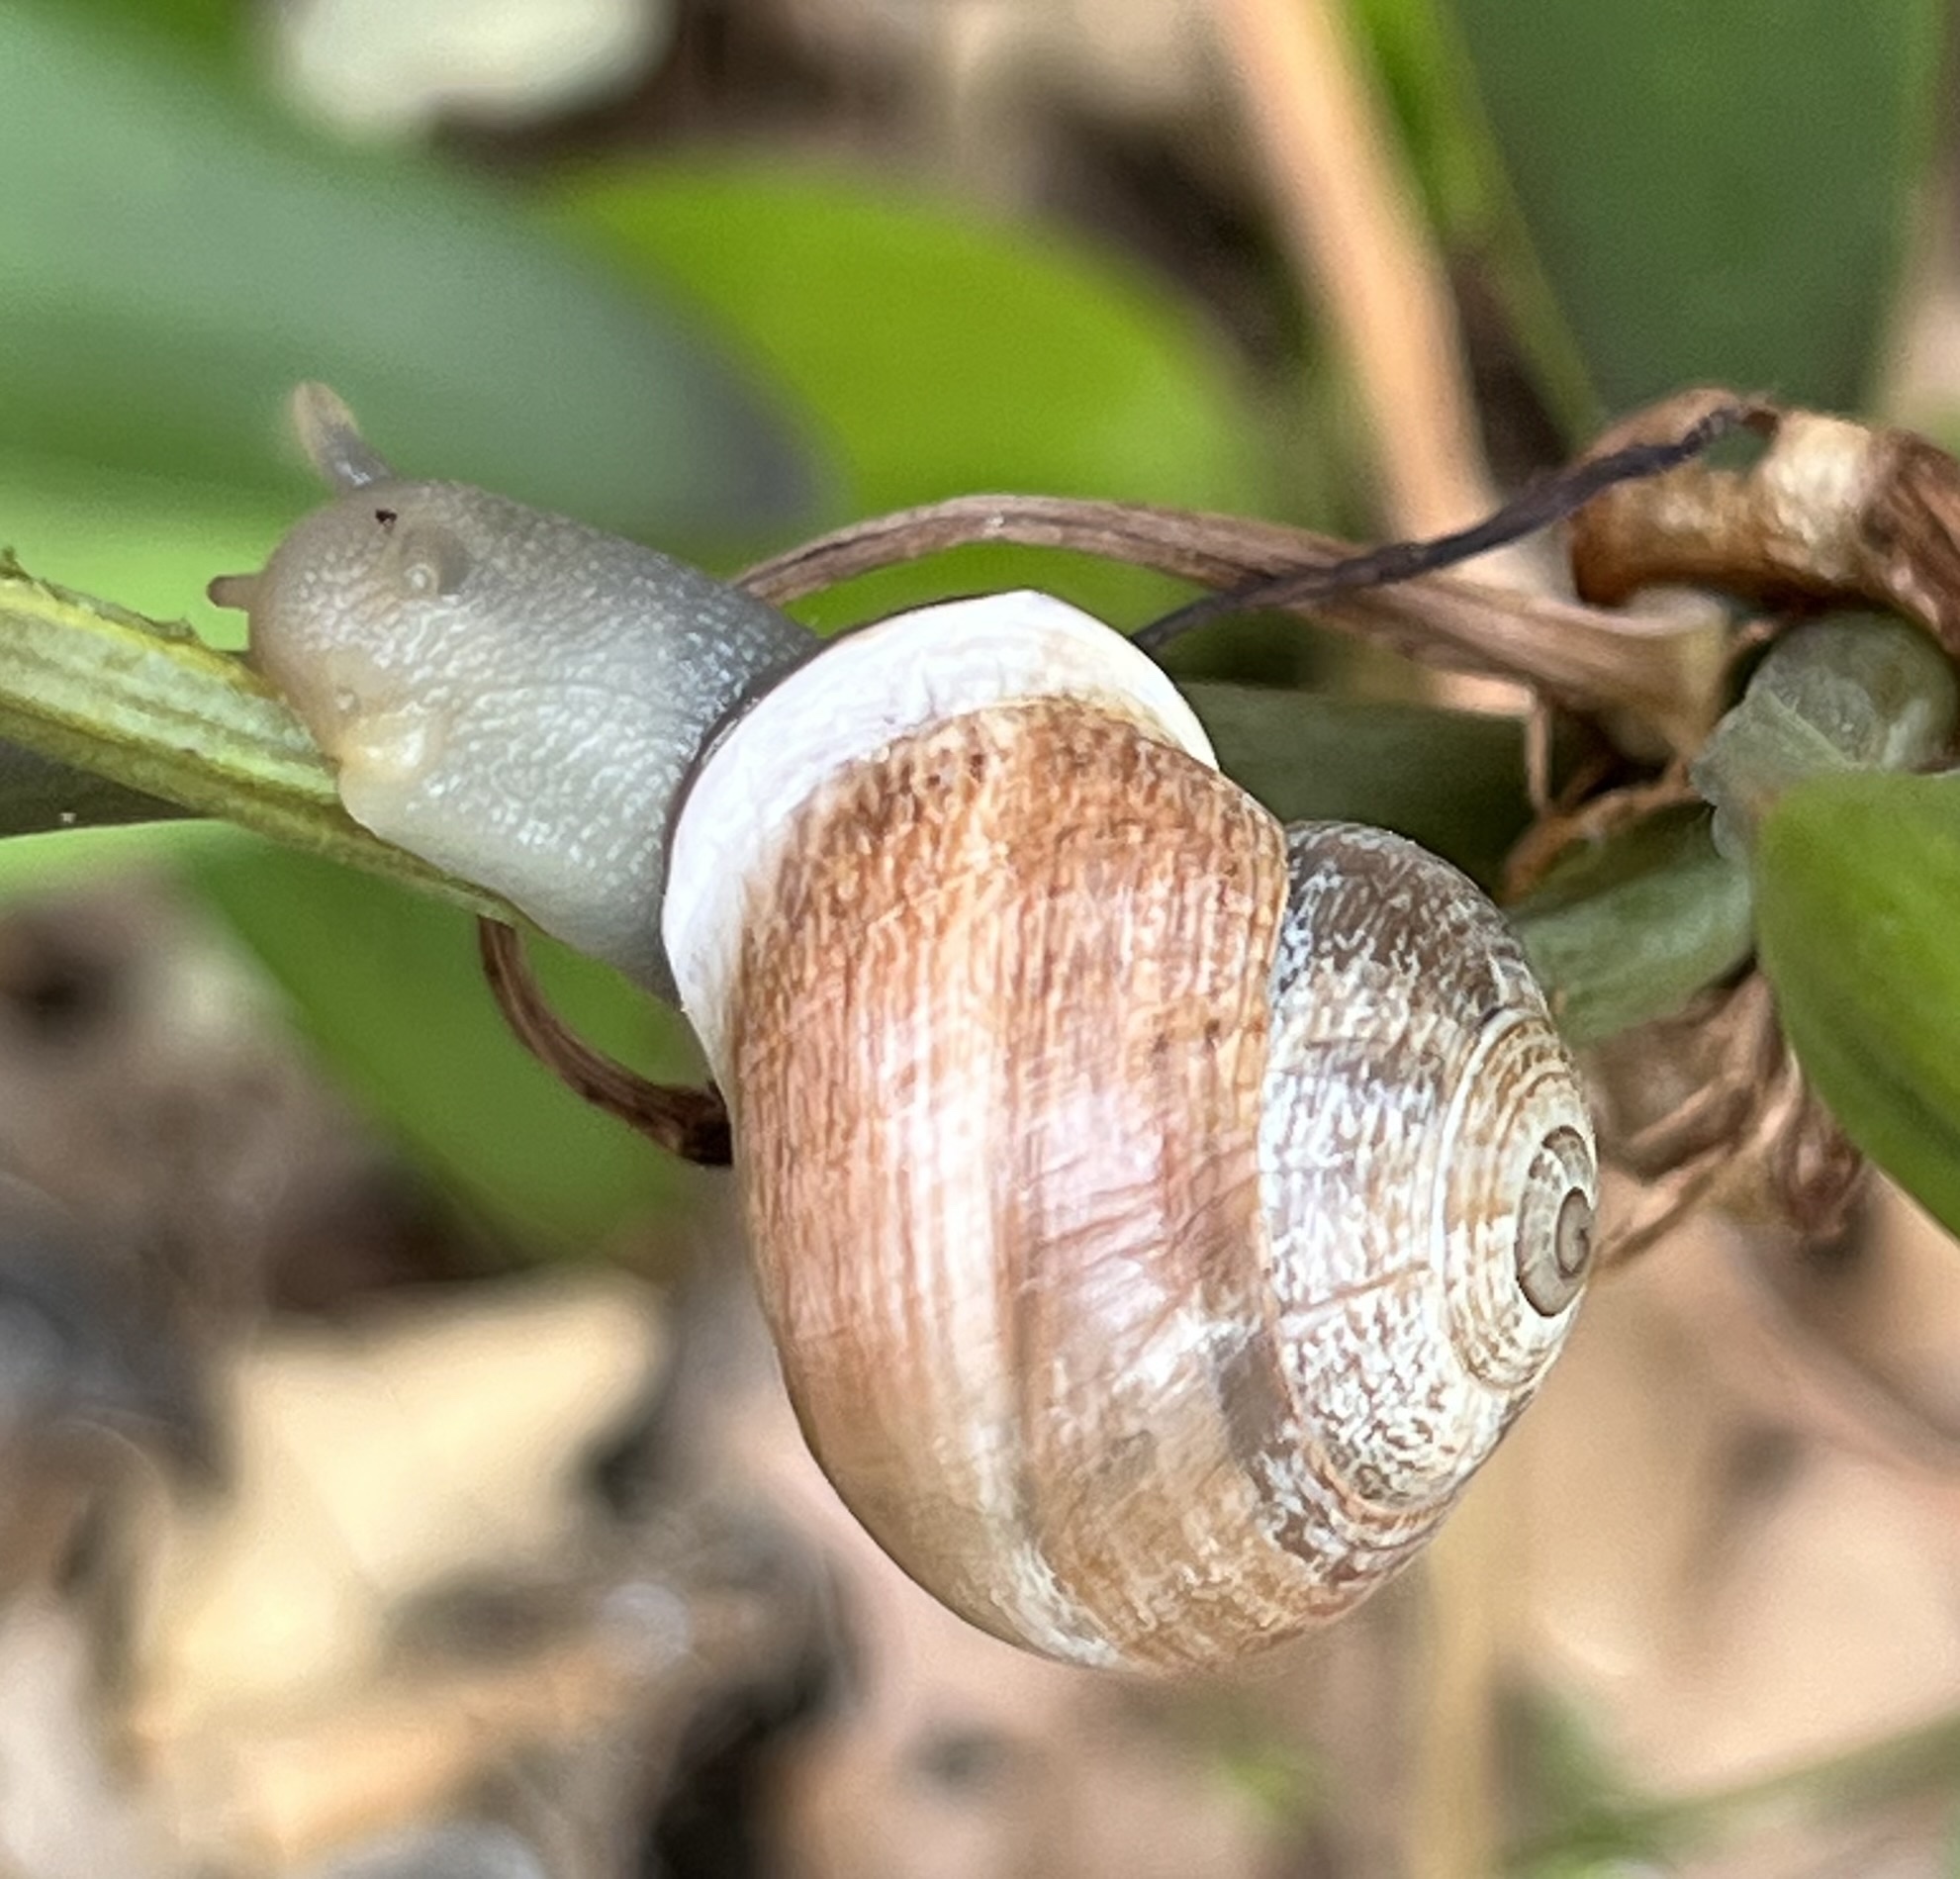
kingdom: Animalia
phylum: Mollusca
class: Gastropoda
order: Stylommatophora
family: Helicidae
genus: Otala
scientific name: Otala lactea
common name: Milk snail
